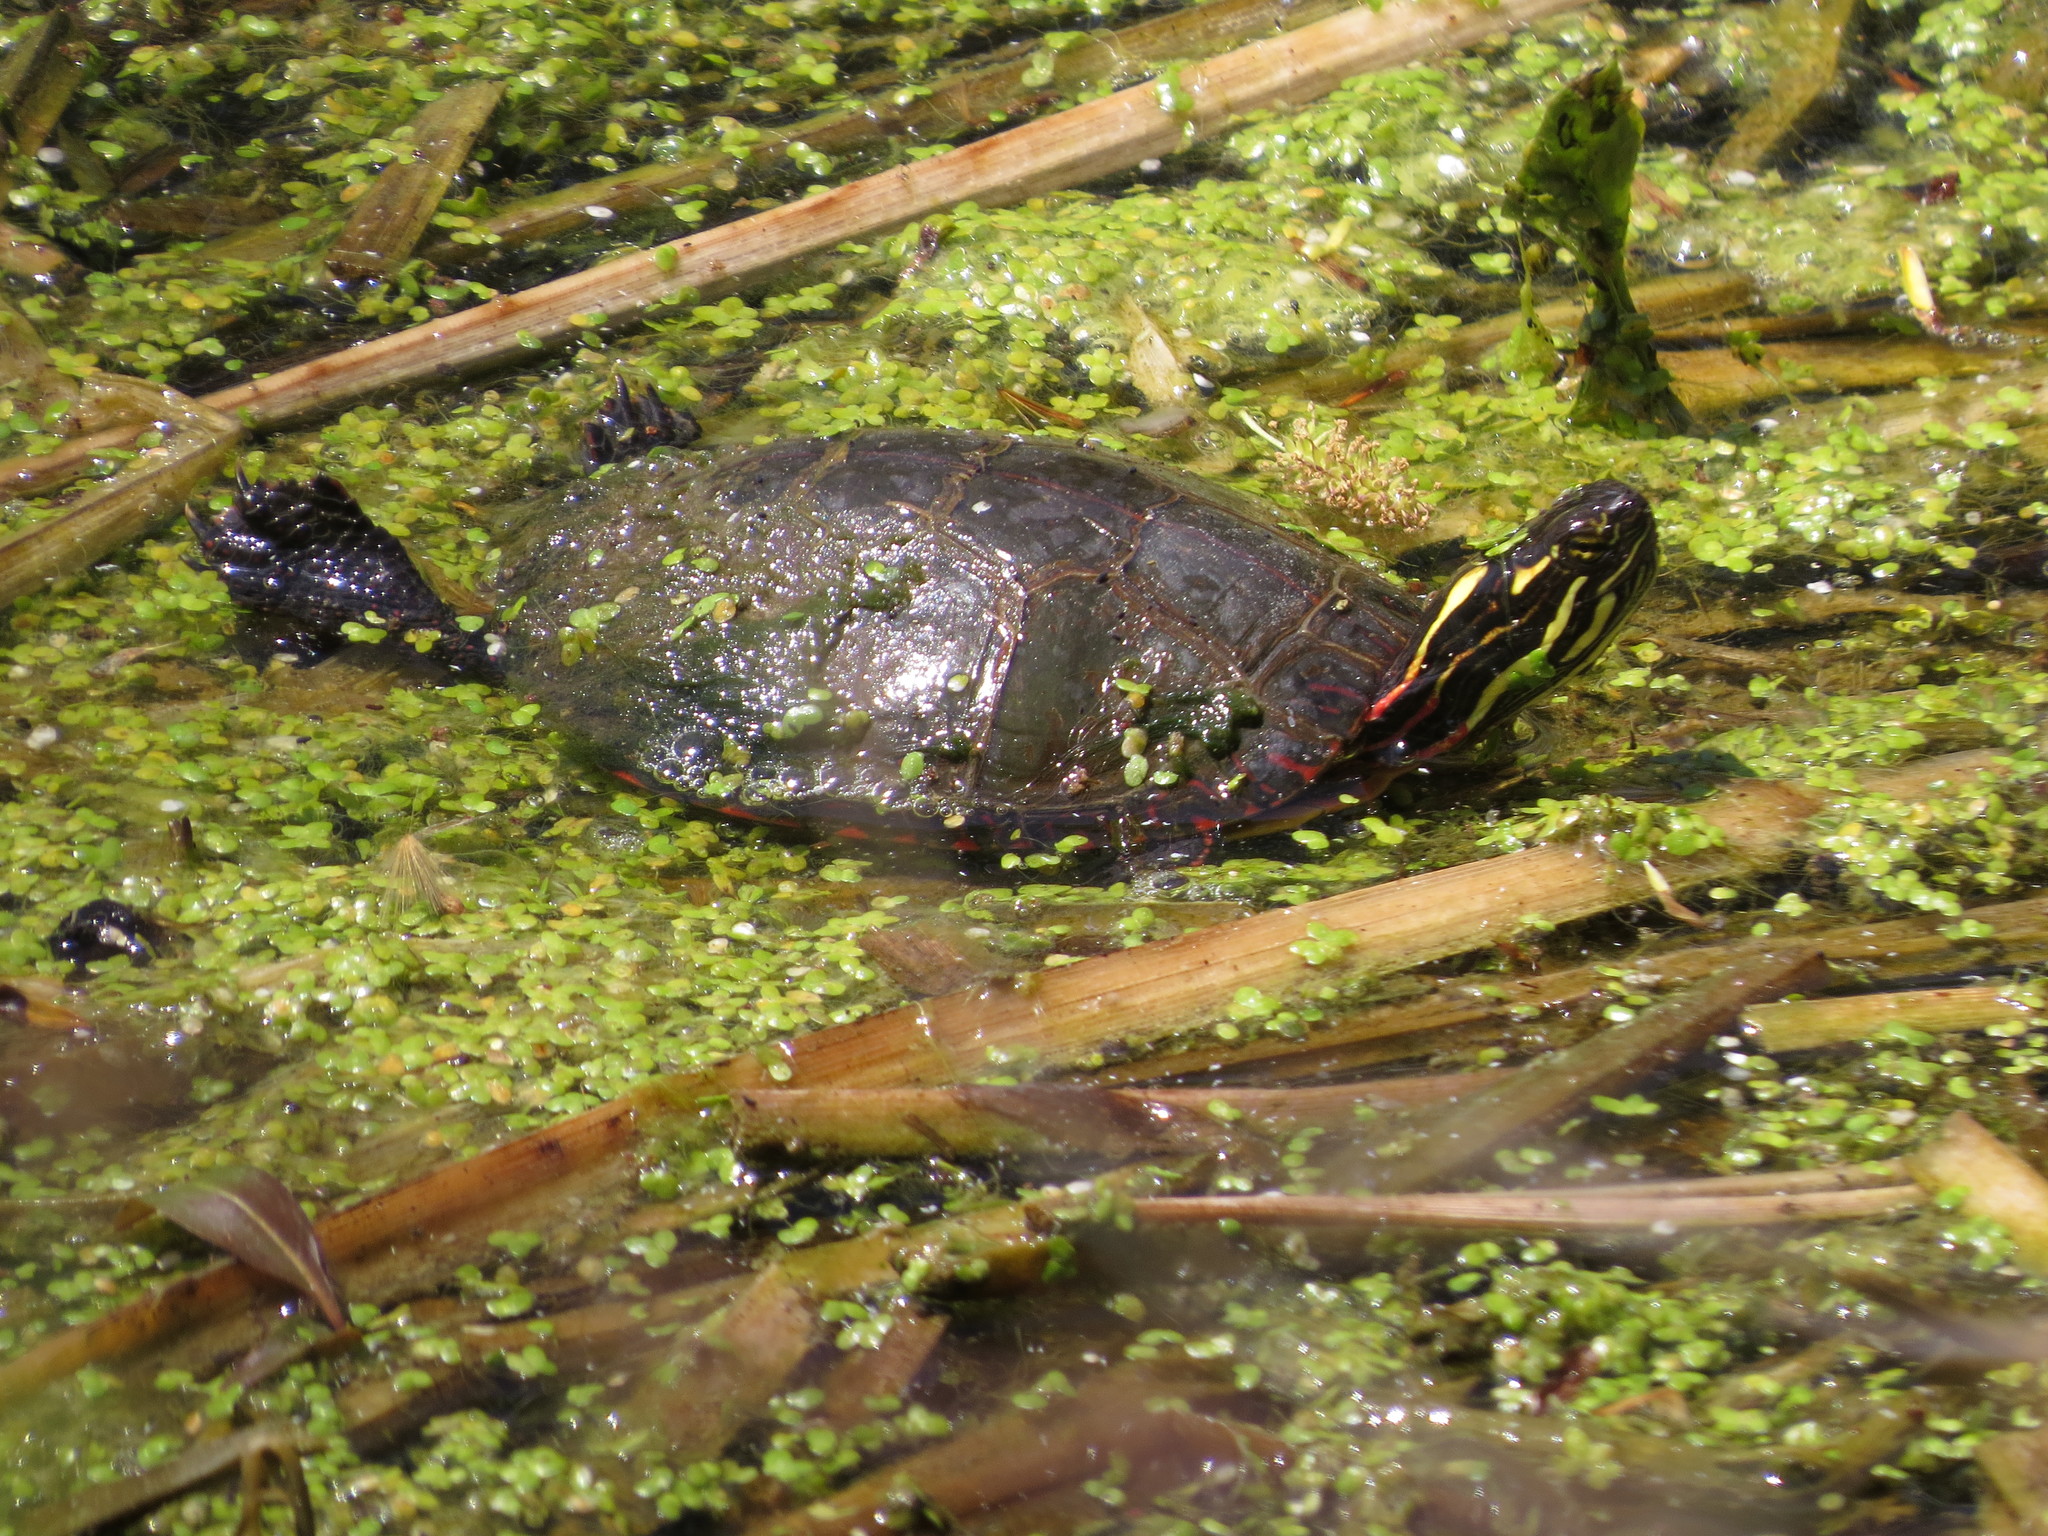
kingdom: Animalia
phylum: Chordata
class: Testudines
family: Emydidae
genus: Chrysemys
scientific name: Chrysemys picta
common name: Painted turtle
